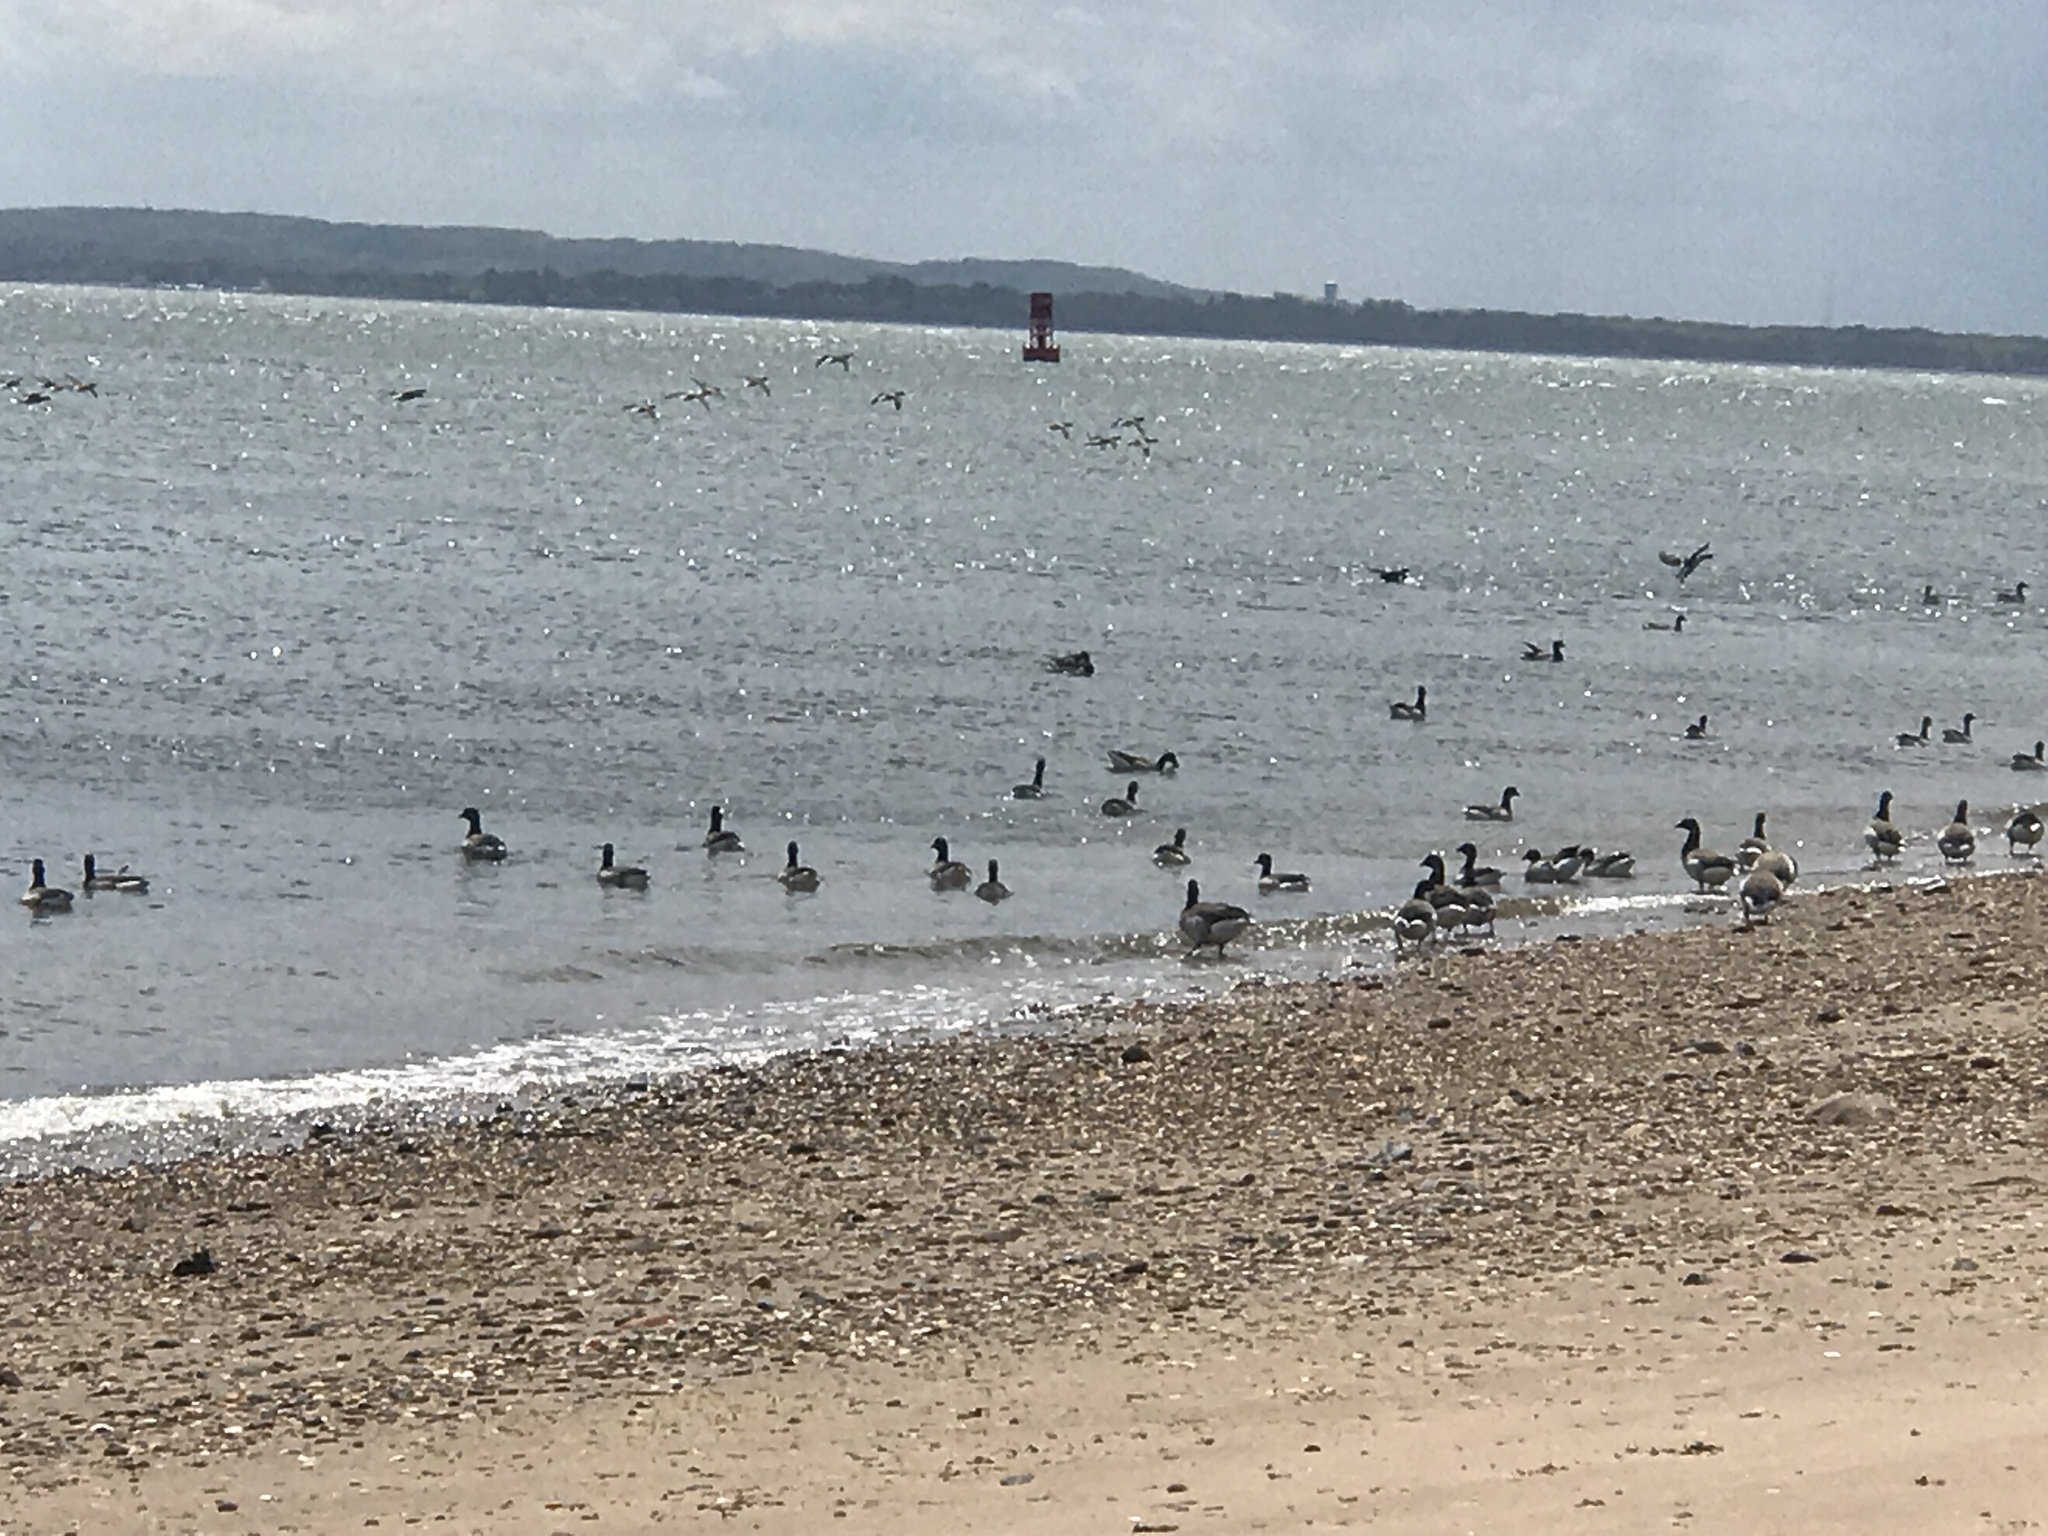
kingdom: Animalia
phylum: Chordata
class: Aves
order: Anseriformes
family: Anatidae
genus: Branta
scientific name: Branta bernicla
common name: Brant goose
